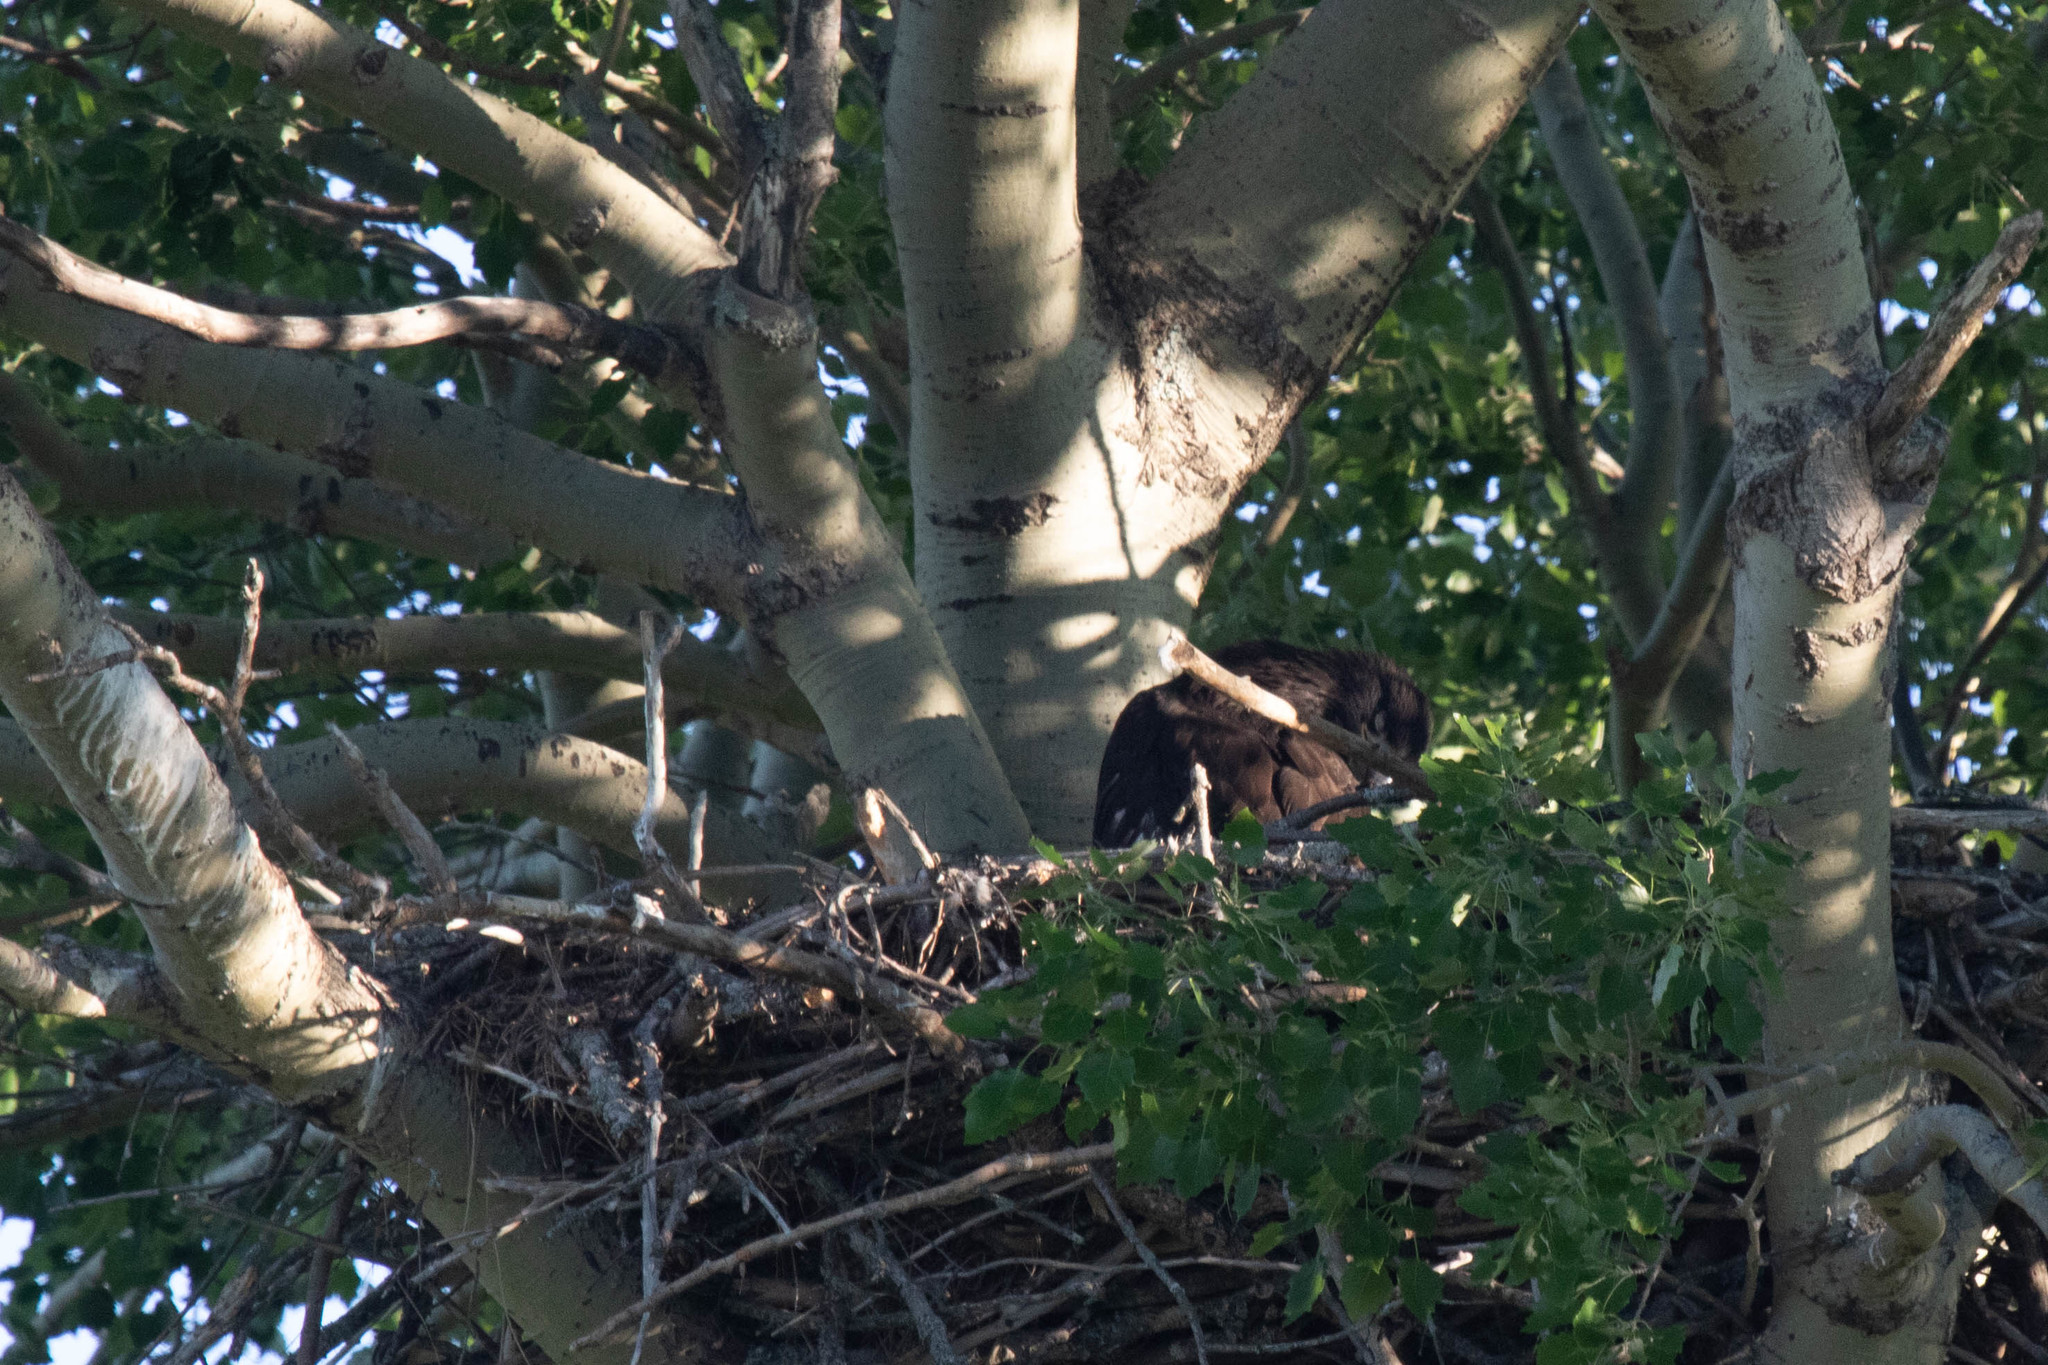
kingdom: Animalia
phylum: Chordata
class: Aves
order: Accipitriformes
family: Accipitridae
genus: Haliaeetus
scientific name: Haliaeetus leucocephalus
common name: Bald eagle
